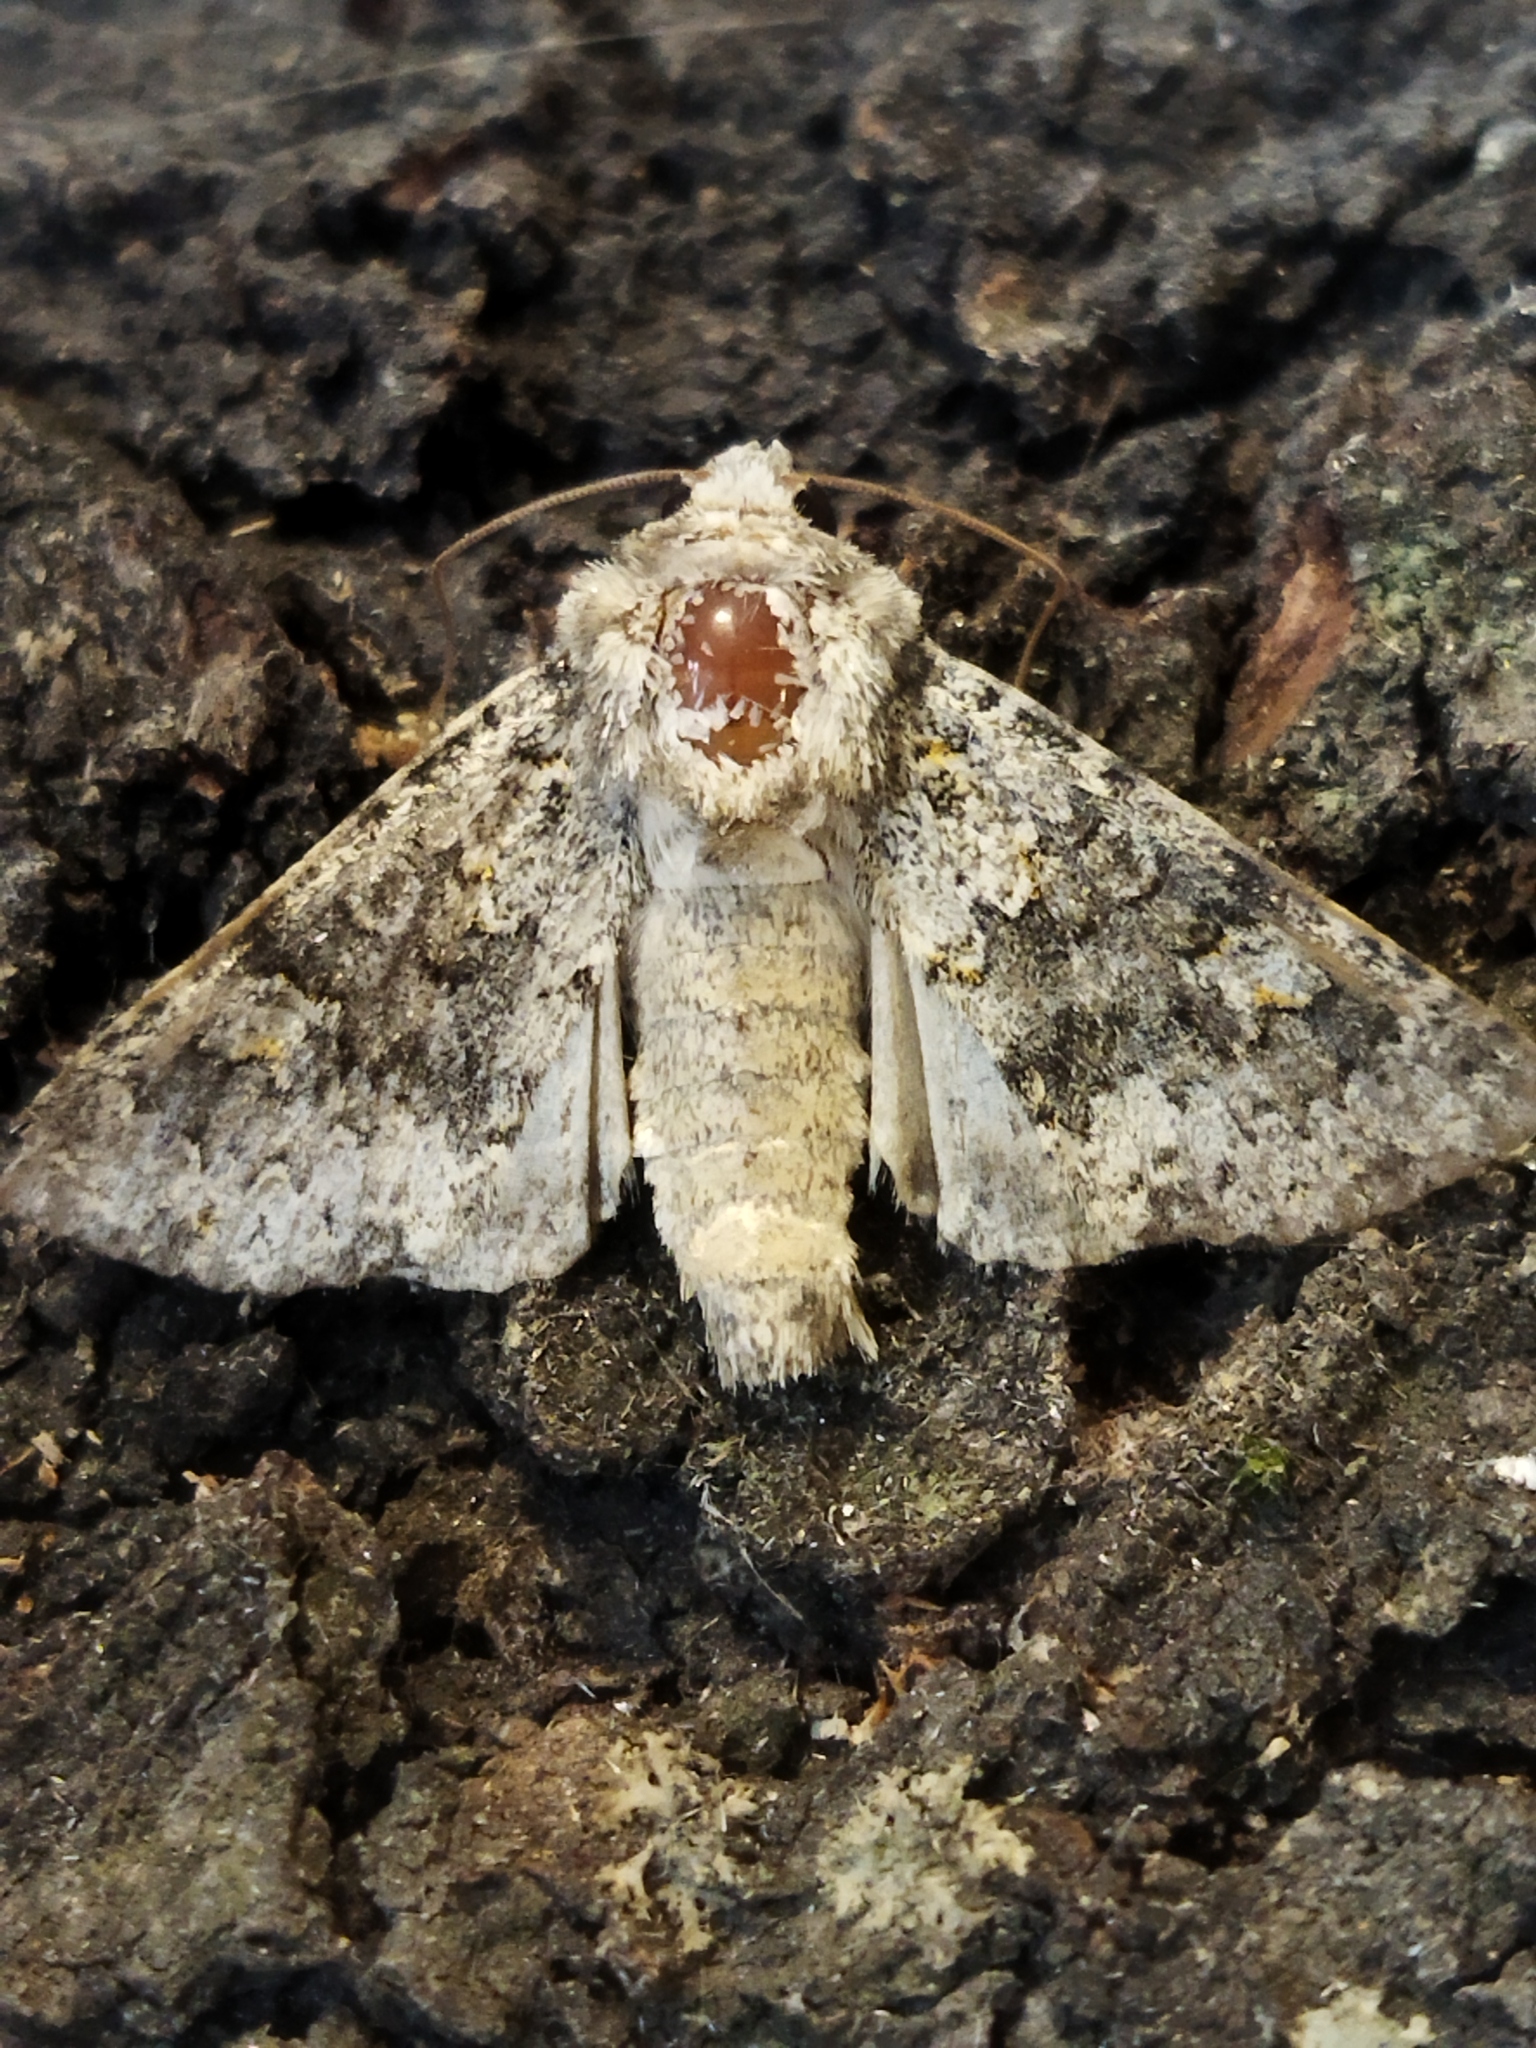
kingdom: Animalia
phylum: Arthropoda
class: Insecta
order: Lepidoptera
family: Noctuidae
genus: Hecatera
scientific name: Hecatera dysodea
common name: Small ranunculus
